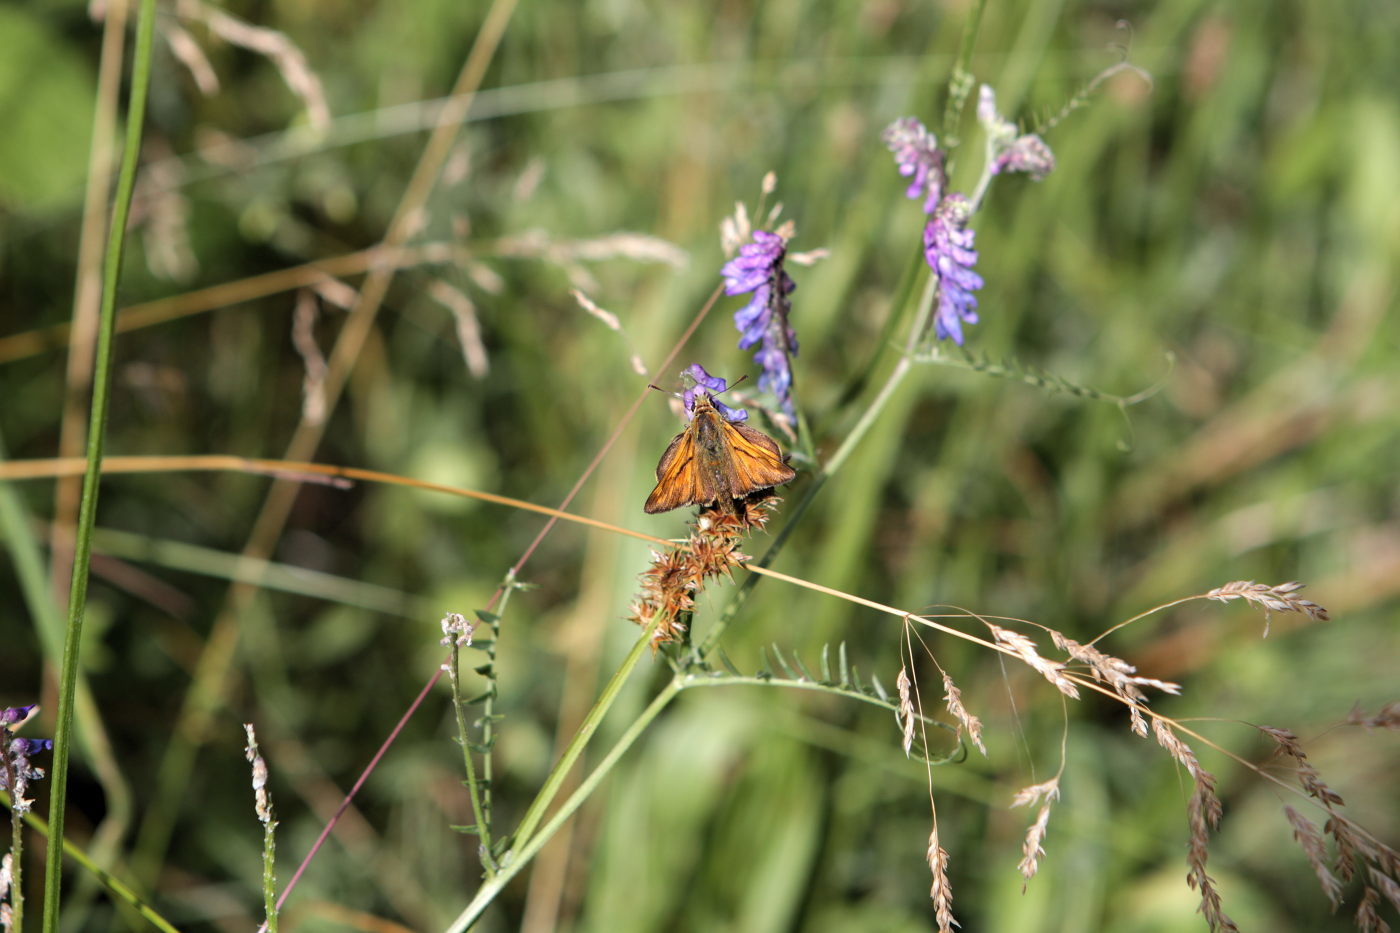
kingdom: Animalia
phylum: Arthropoda
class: Insecta
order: Lepidoptera
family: Hesperiidae
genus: Ochlodes
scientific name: Ochlodes venata
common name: Large skipper
